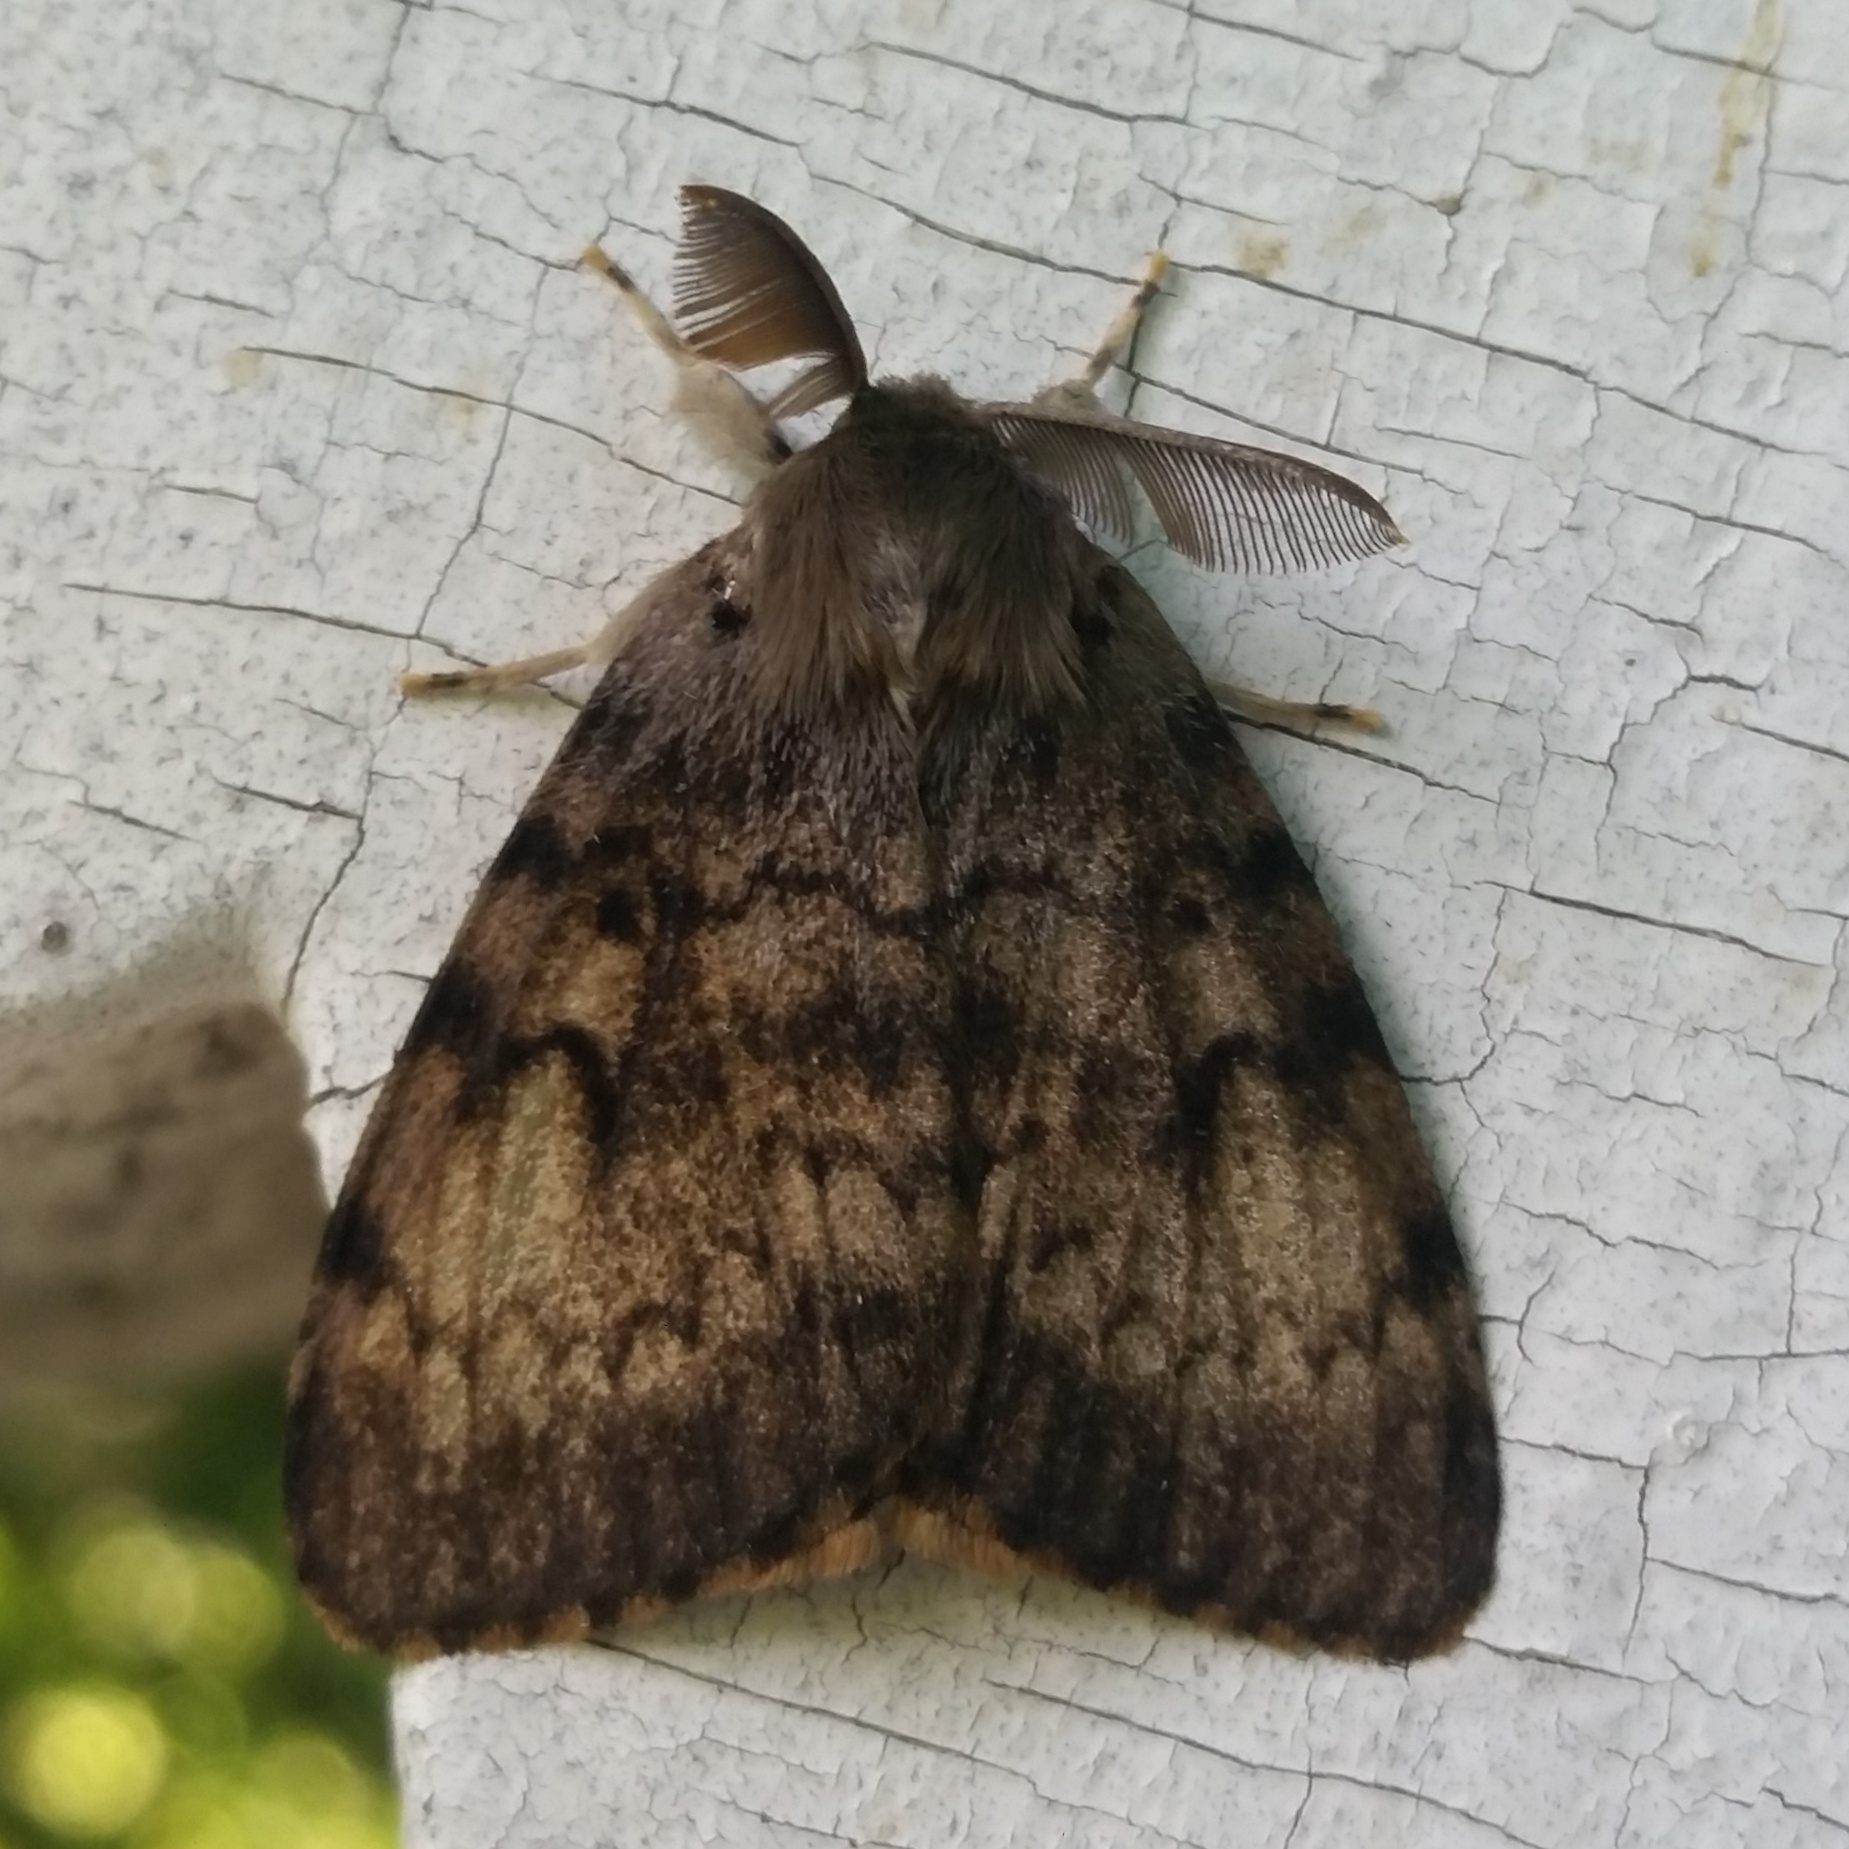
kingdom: Animalia
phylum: Arthropoda
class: Insecta
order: Lepidoptera
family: Erebidae
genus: Lymantria
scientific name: Lymantria dispar
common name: Gypsy moth
